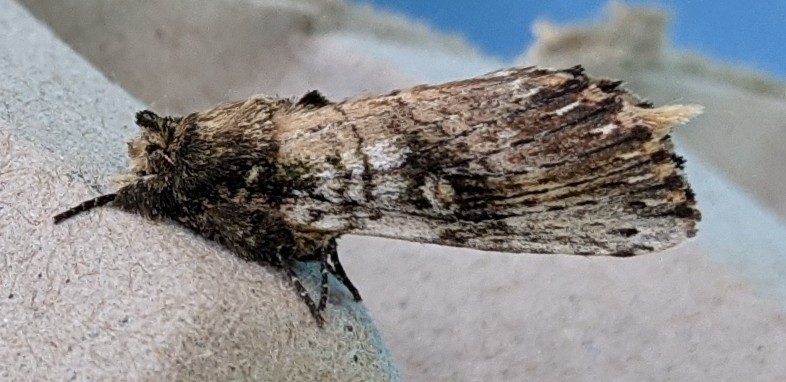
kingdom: Animalia
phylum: Arthropoda
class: Insecta
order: Lepidoptera
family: Notodontidae
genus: Schizura
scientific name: Schizura ipomaeae
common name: Morning-glory prominent
